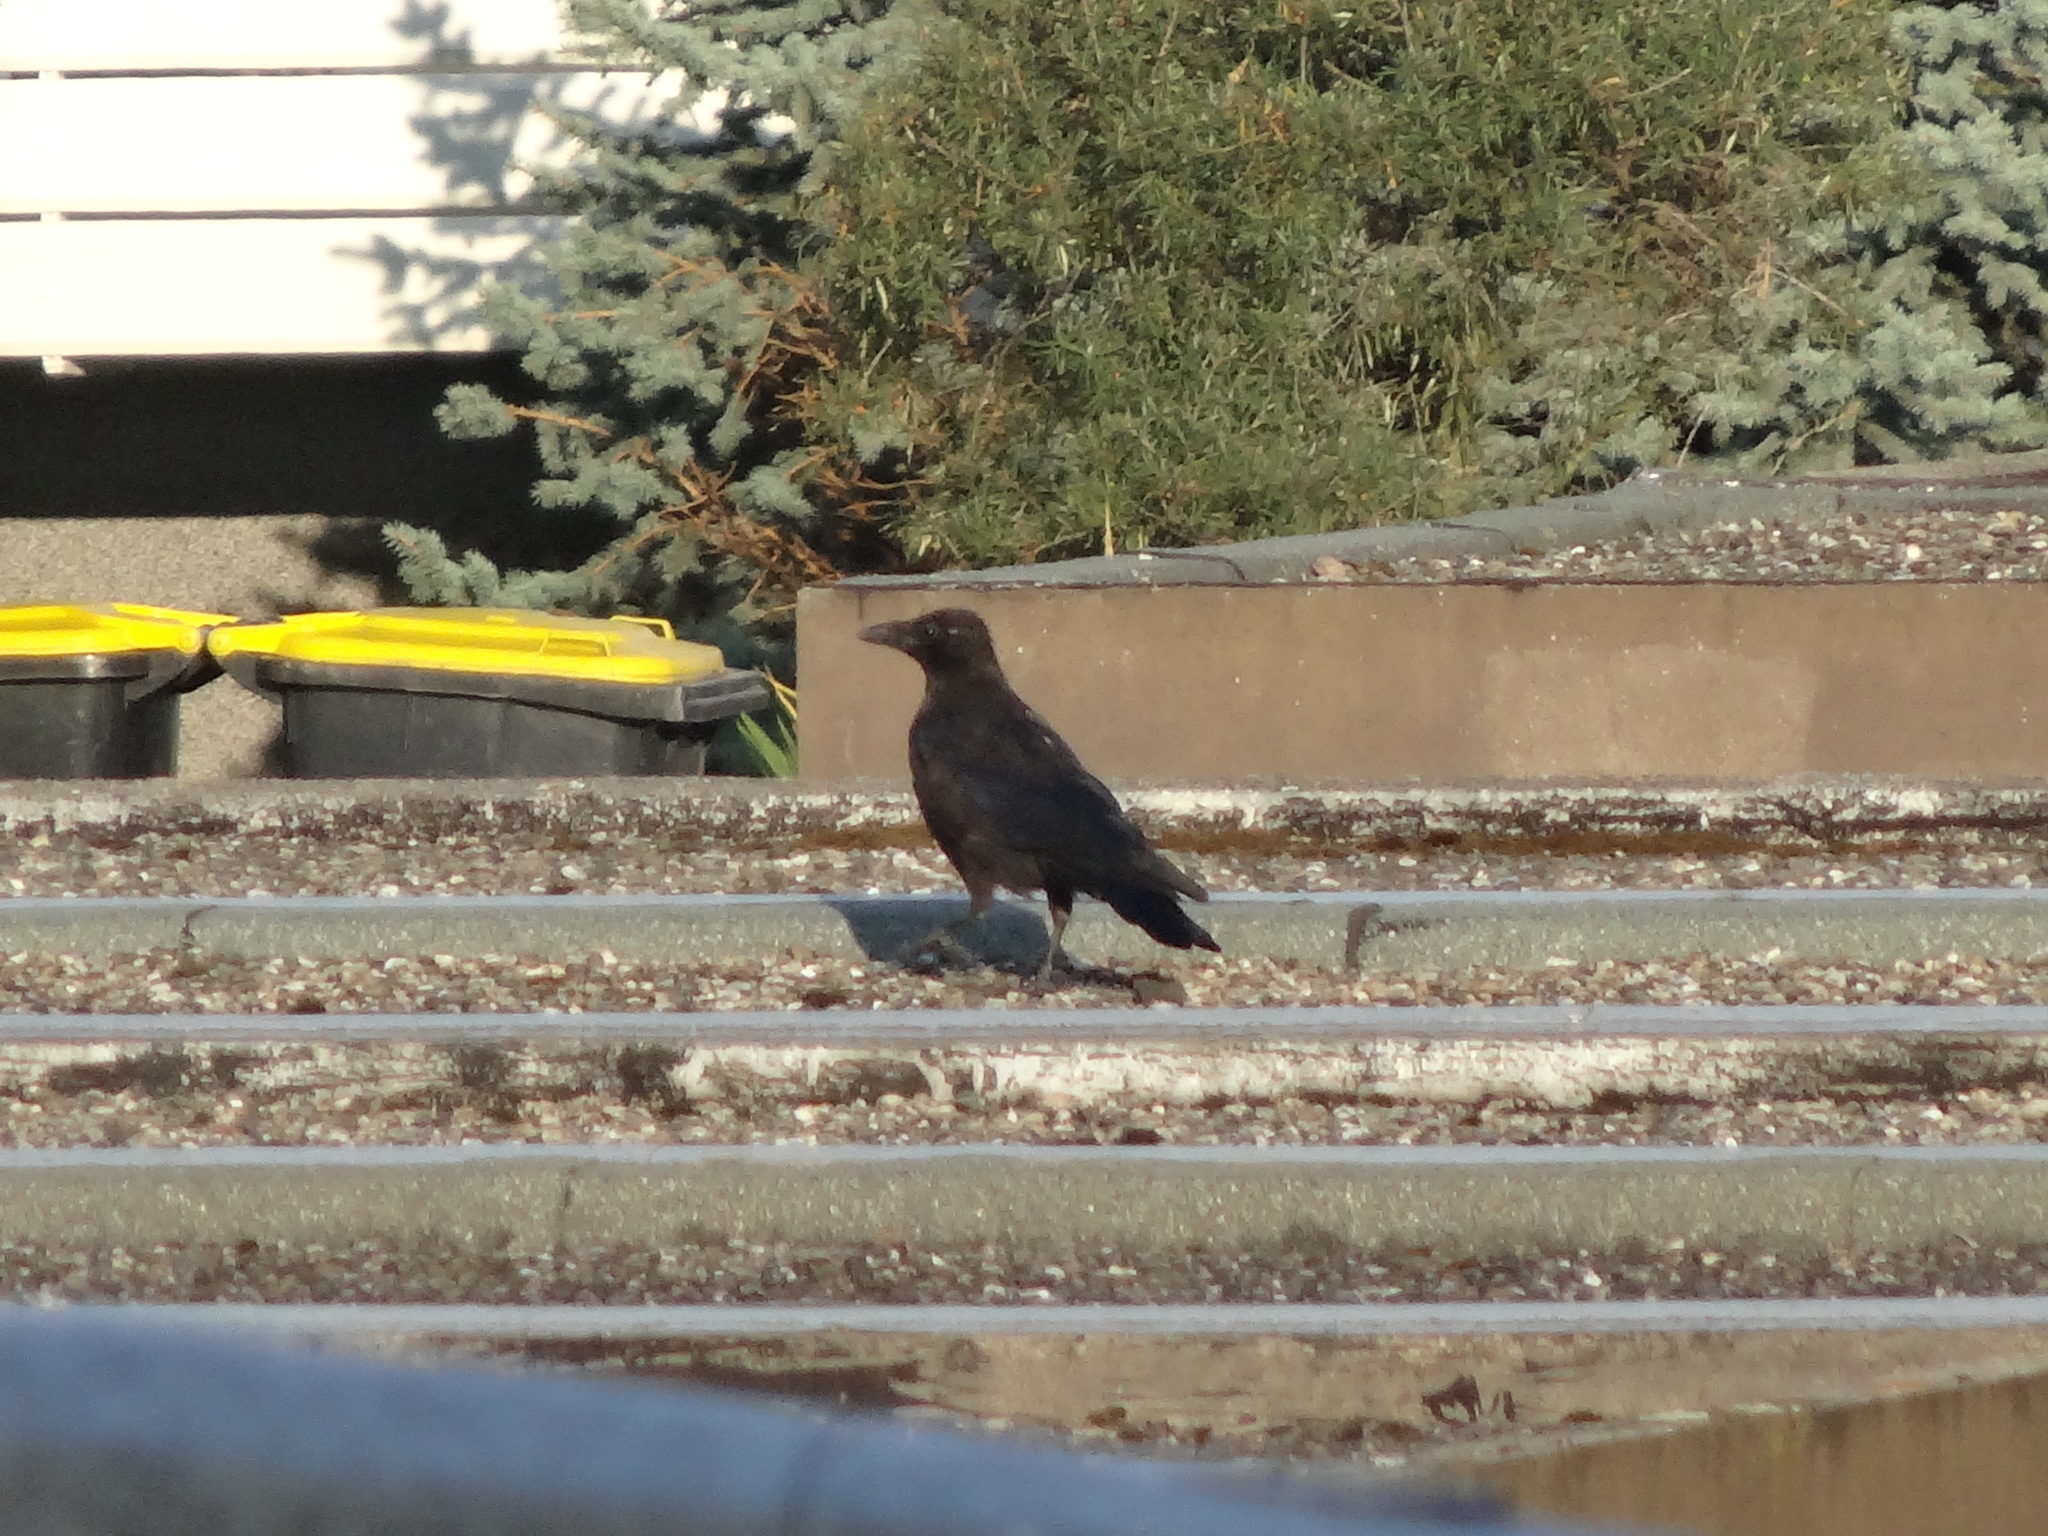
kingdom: Animalia
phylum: Chordata
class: Aves
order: Passeriformes
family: Corvidae
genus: Corvus
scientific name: Corvus corone
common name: Carrion crow
